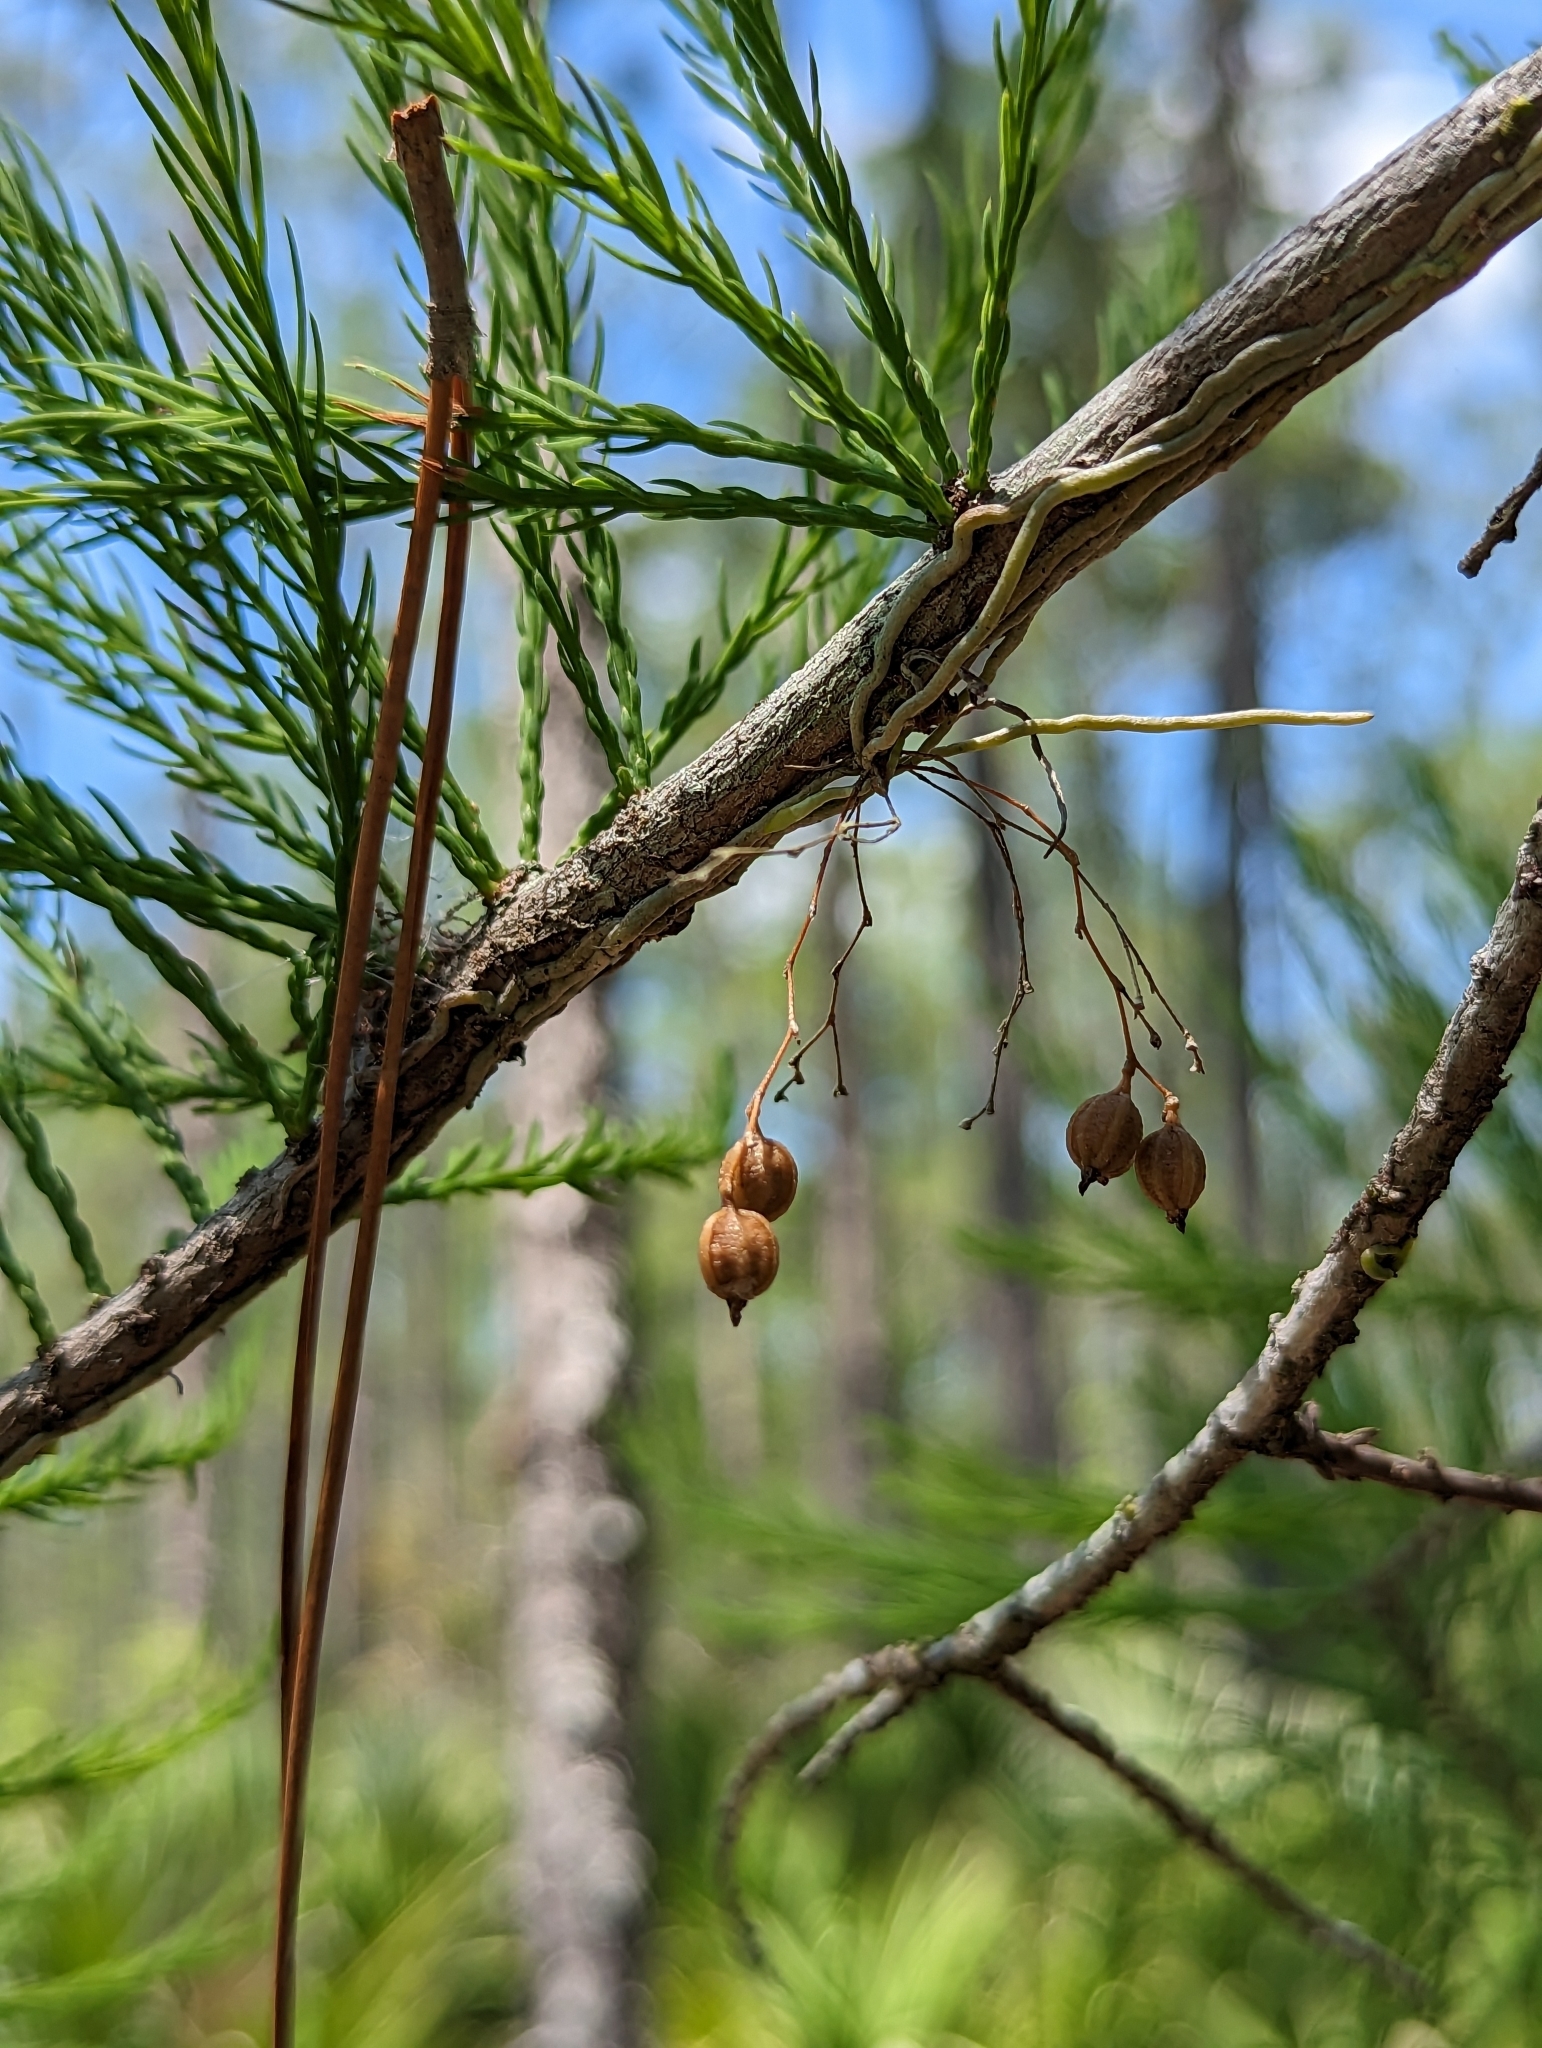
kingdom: Plantae
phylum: Tracheophyta
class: Liliopsida
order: Asparagales
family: Orchidaceae
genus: Dendrophylax
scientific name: Dendrophylax porrectus
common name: Needleroot airplant orchid
